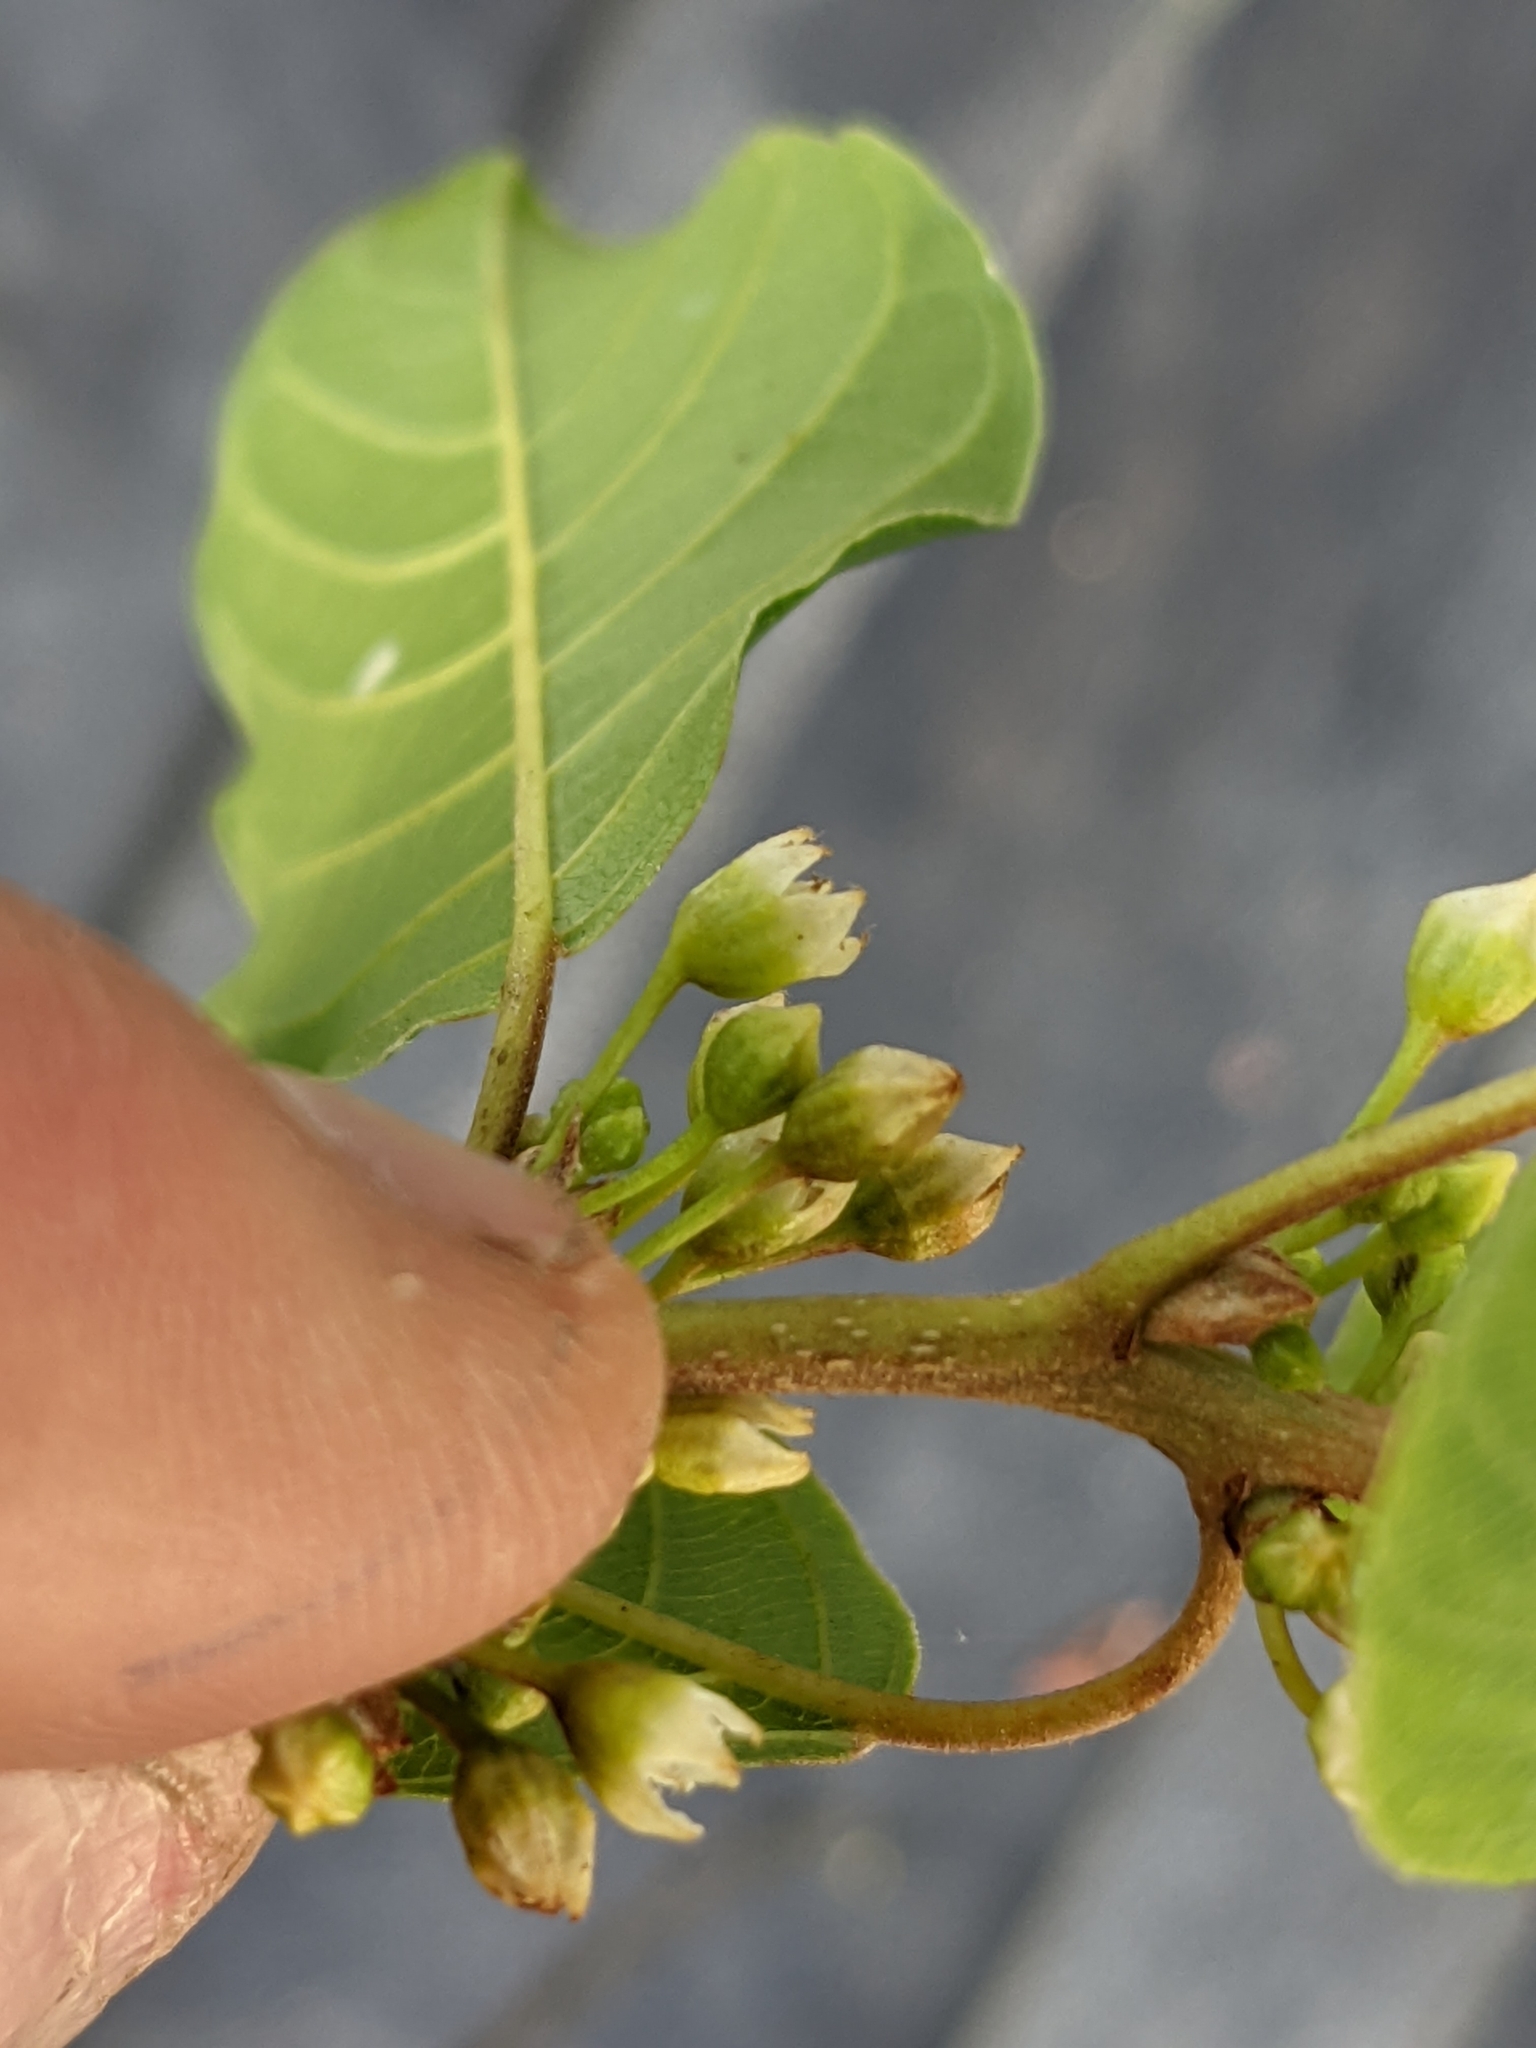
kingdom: Plantae
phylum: Tracheophyta
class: Magnoliopsida
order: Rosales
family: Rhamnaceae
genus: Frangula
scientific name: Frangula alnus
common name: Alder buckthorn
